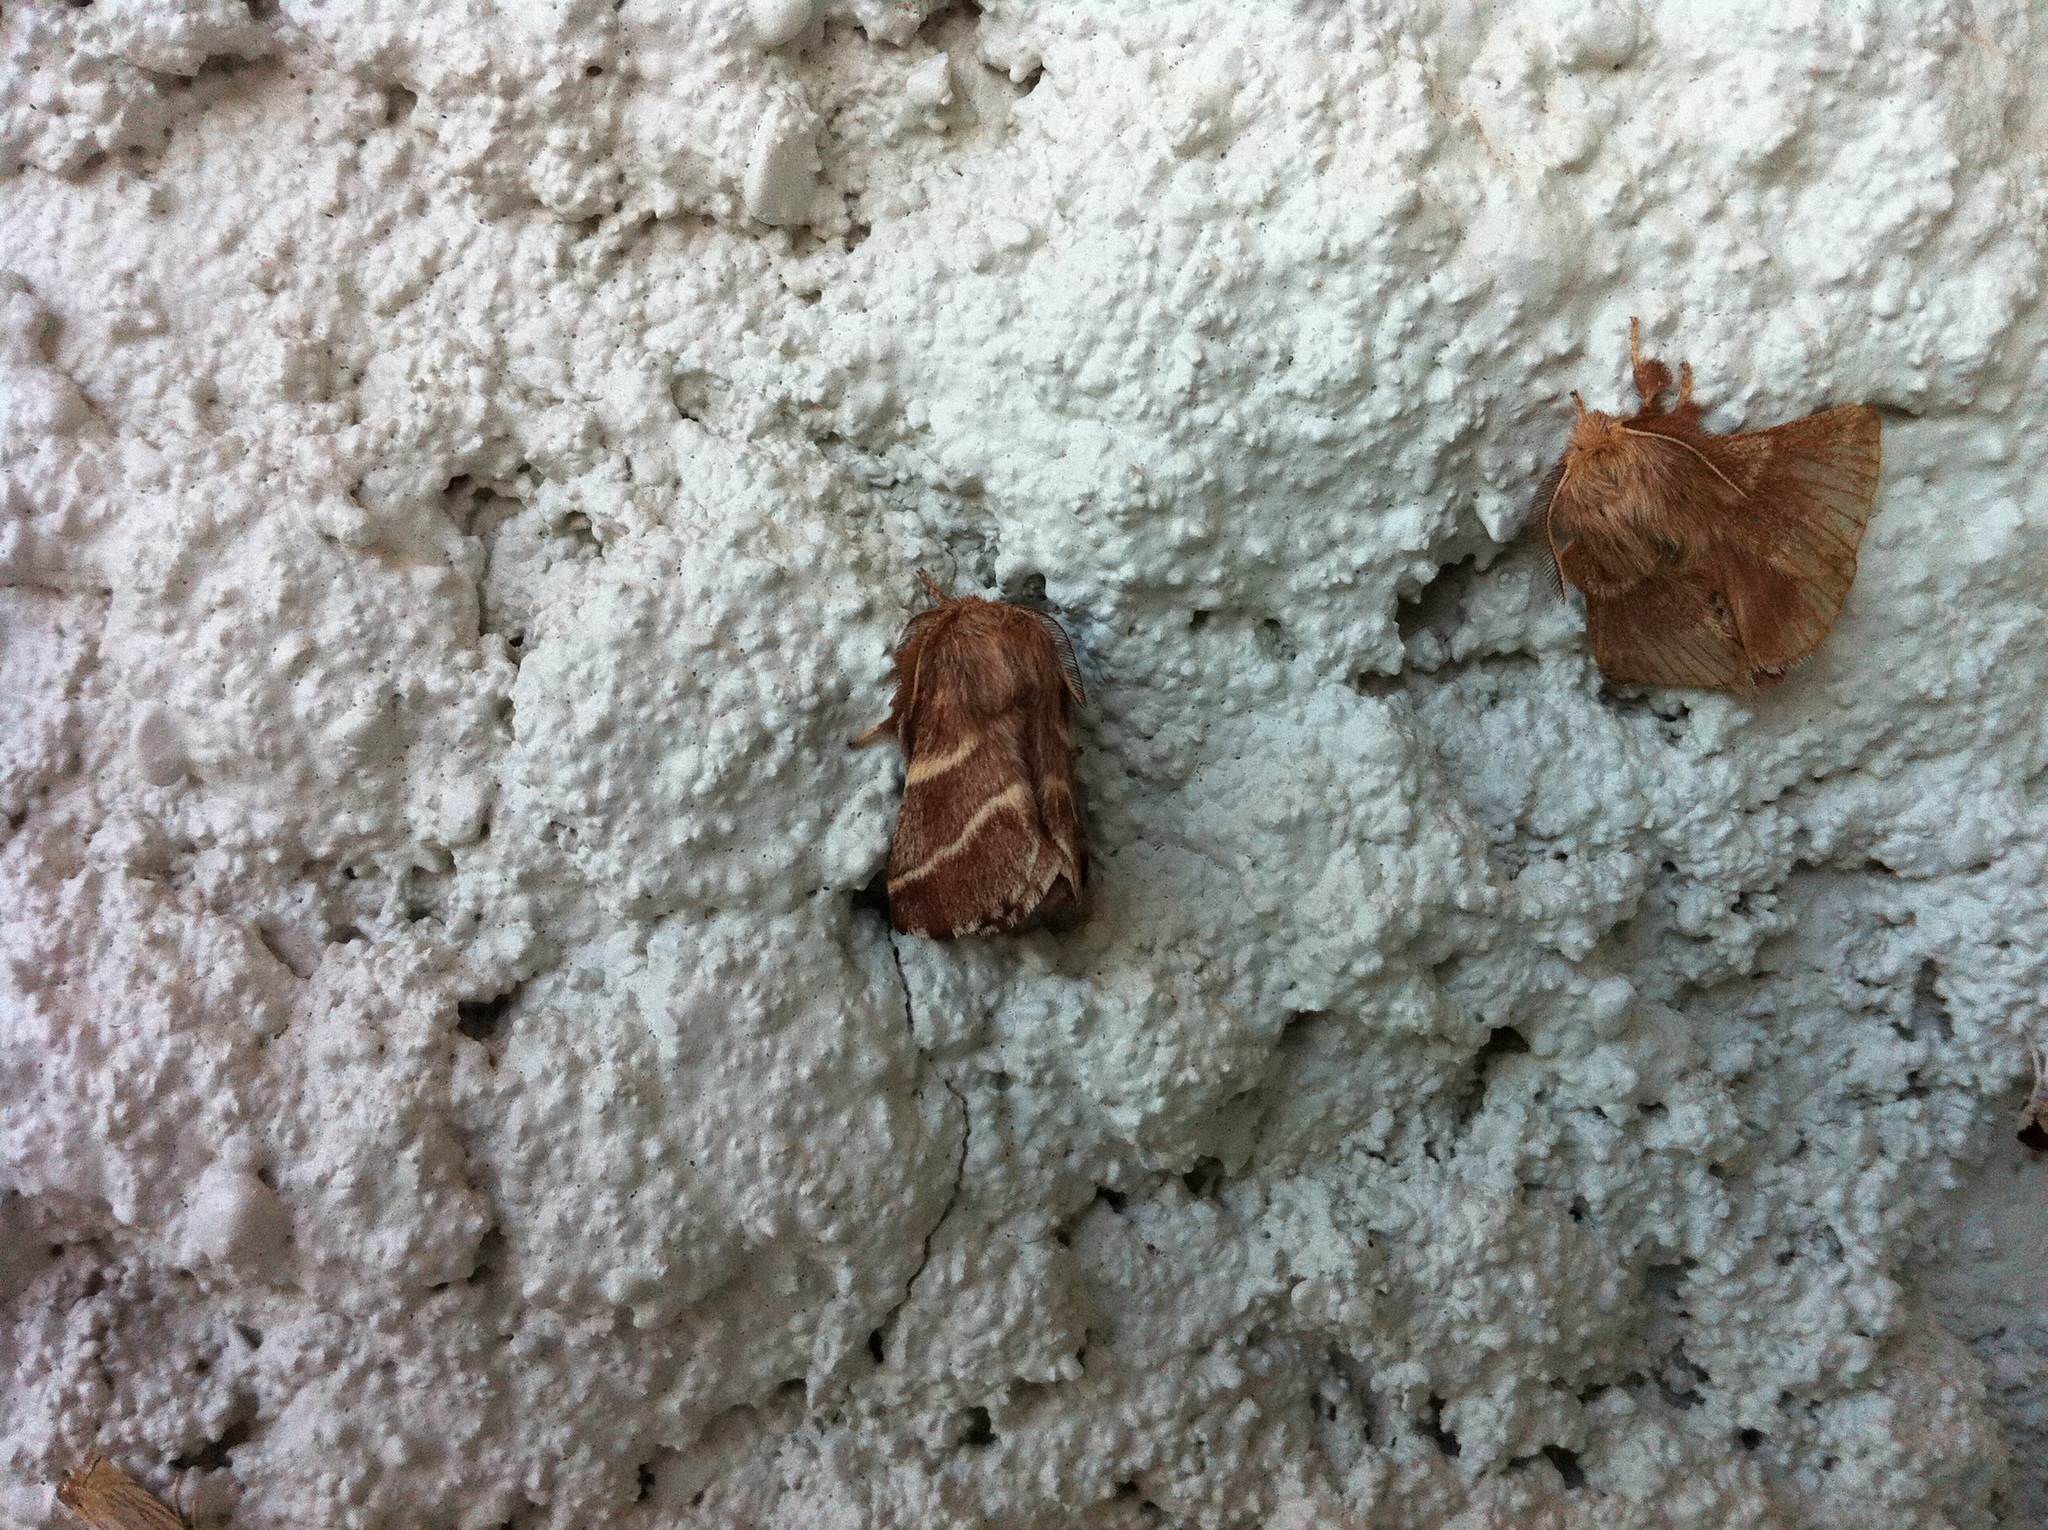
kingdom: Animalia
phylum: Arthropoda
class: Insecta
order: Lepidoptera
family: Lasiocampidae
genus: Malacosoma
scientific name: Malacosoma americana
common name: Eastern tent caterpillar moth
